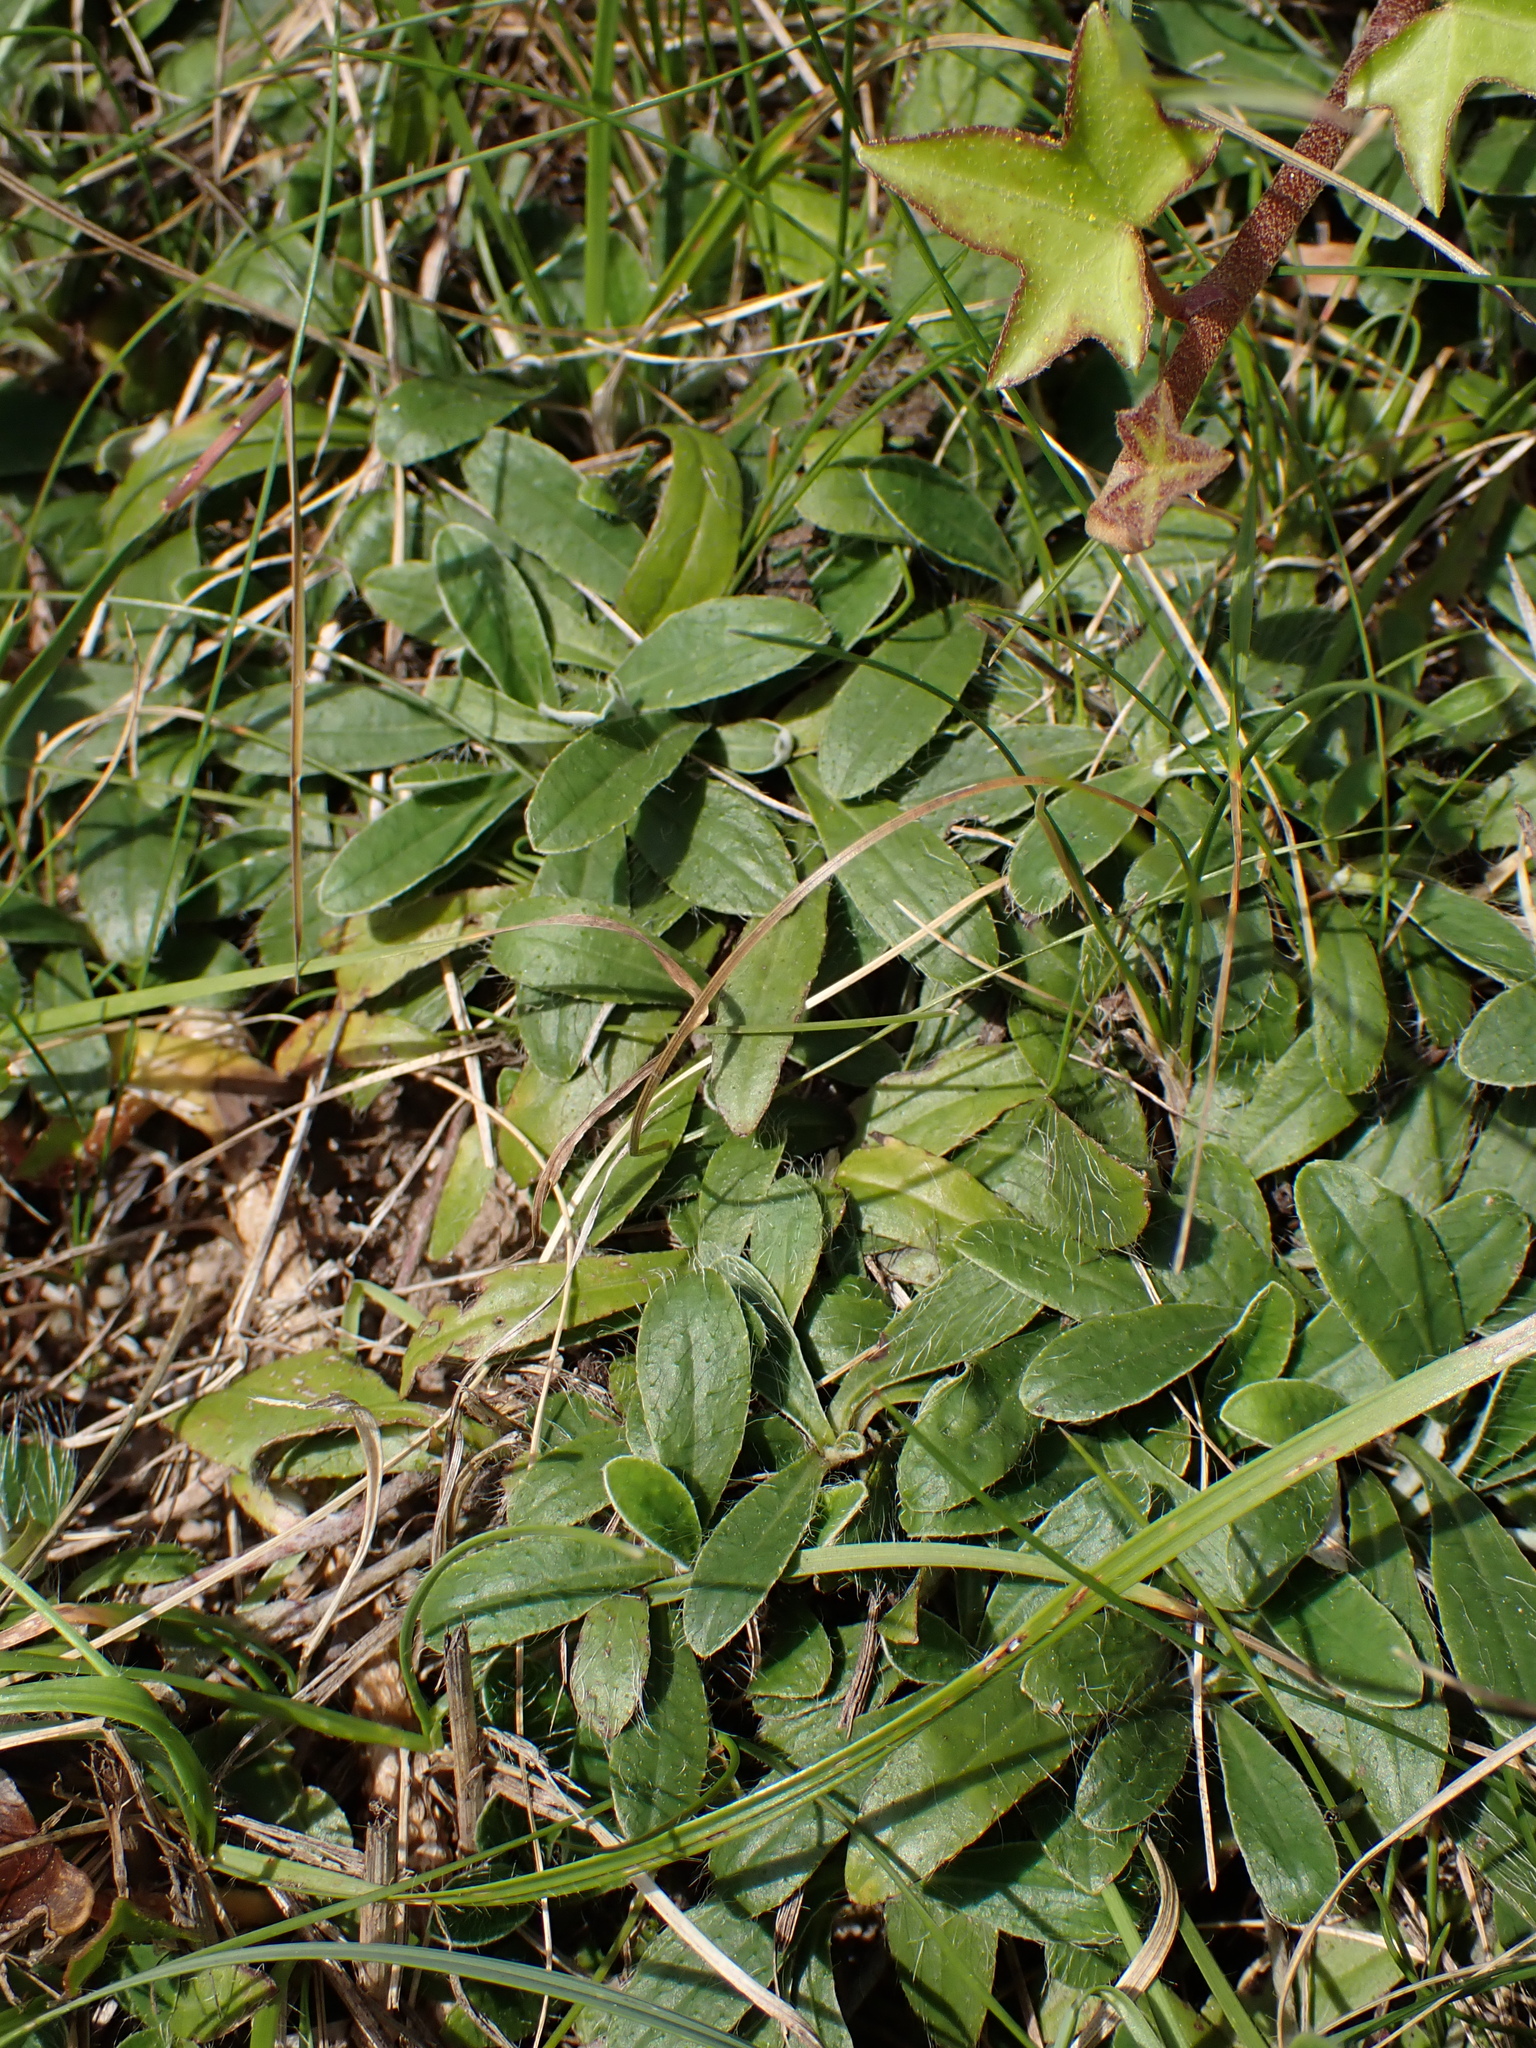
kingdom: Plantae
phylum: Tracheophyta
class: Magnoliopsida
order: Asterales
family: Asteraceae
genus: Pilosella
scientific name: Pilosella officinarum
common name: Mouse-ear hawkweed
